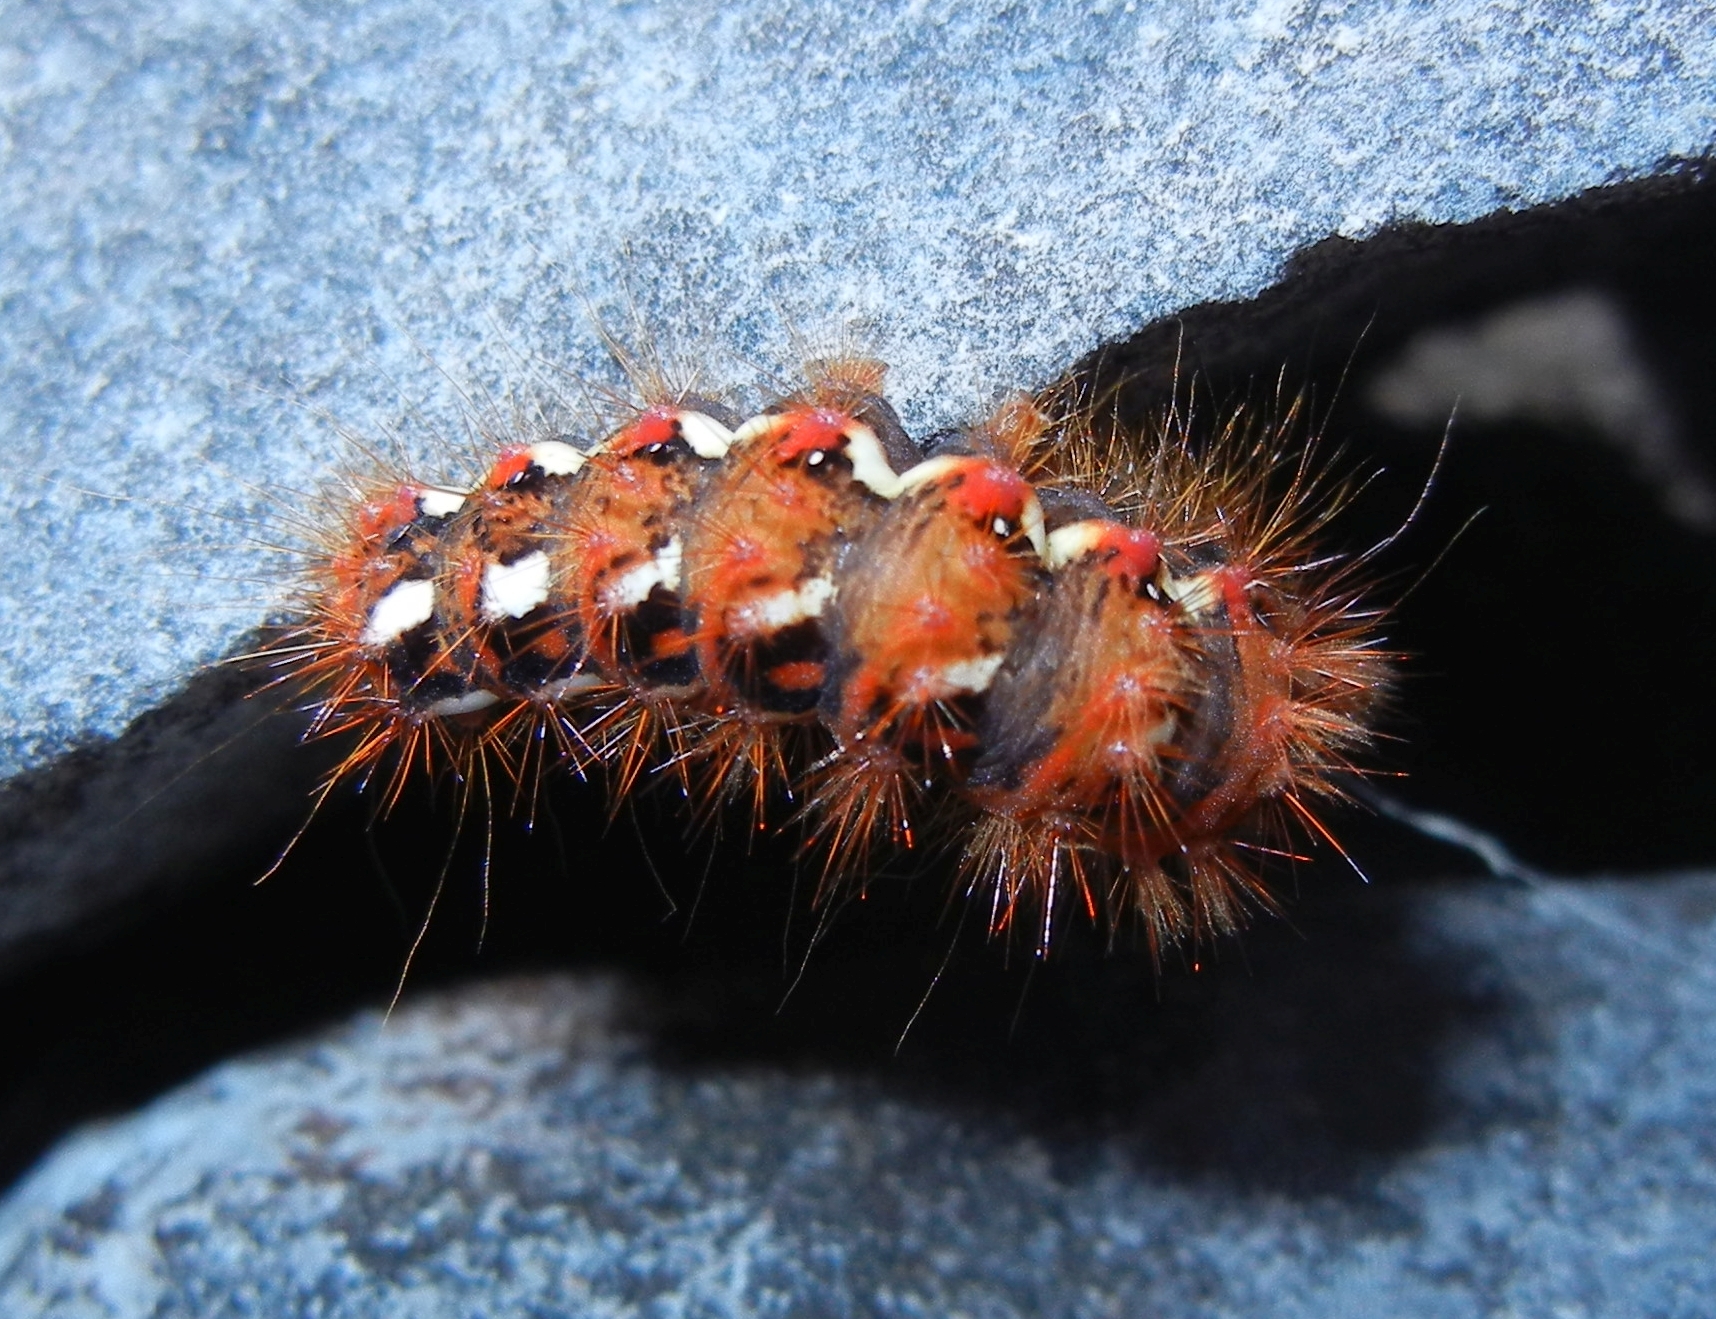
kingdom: Animalia
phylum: Arthropoda
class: Insecta
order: Lepidoptera
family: Noctuidae
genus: Acronicta
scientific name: Acronicta rumicis
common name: Knot grass
